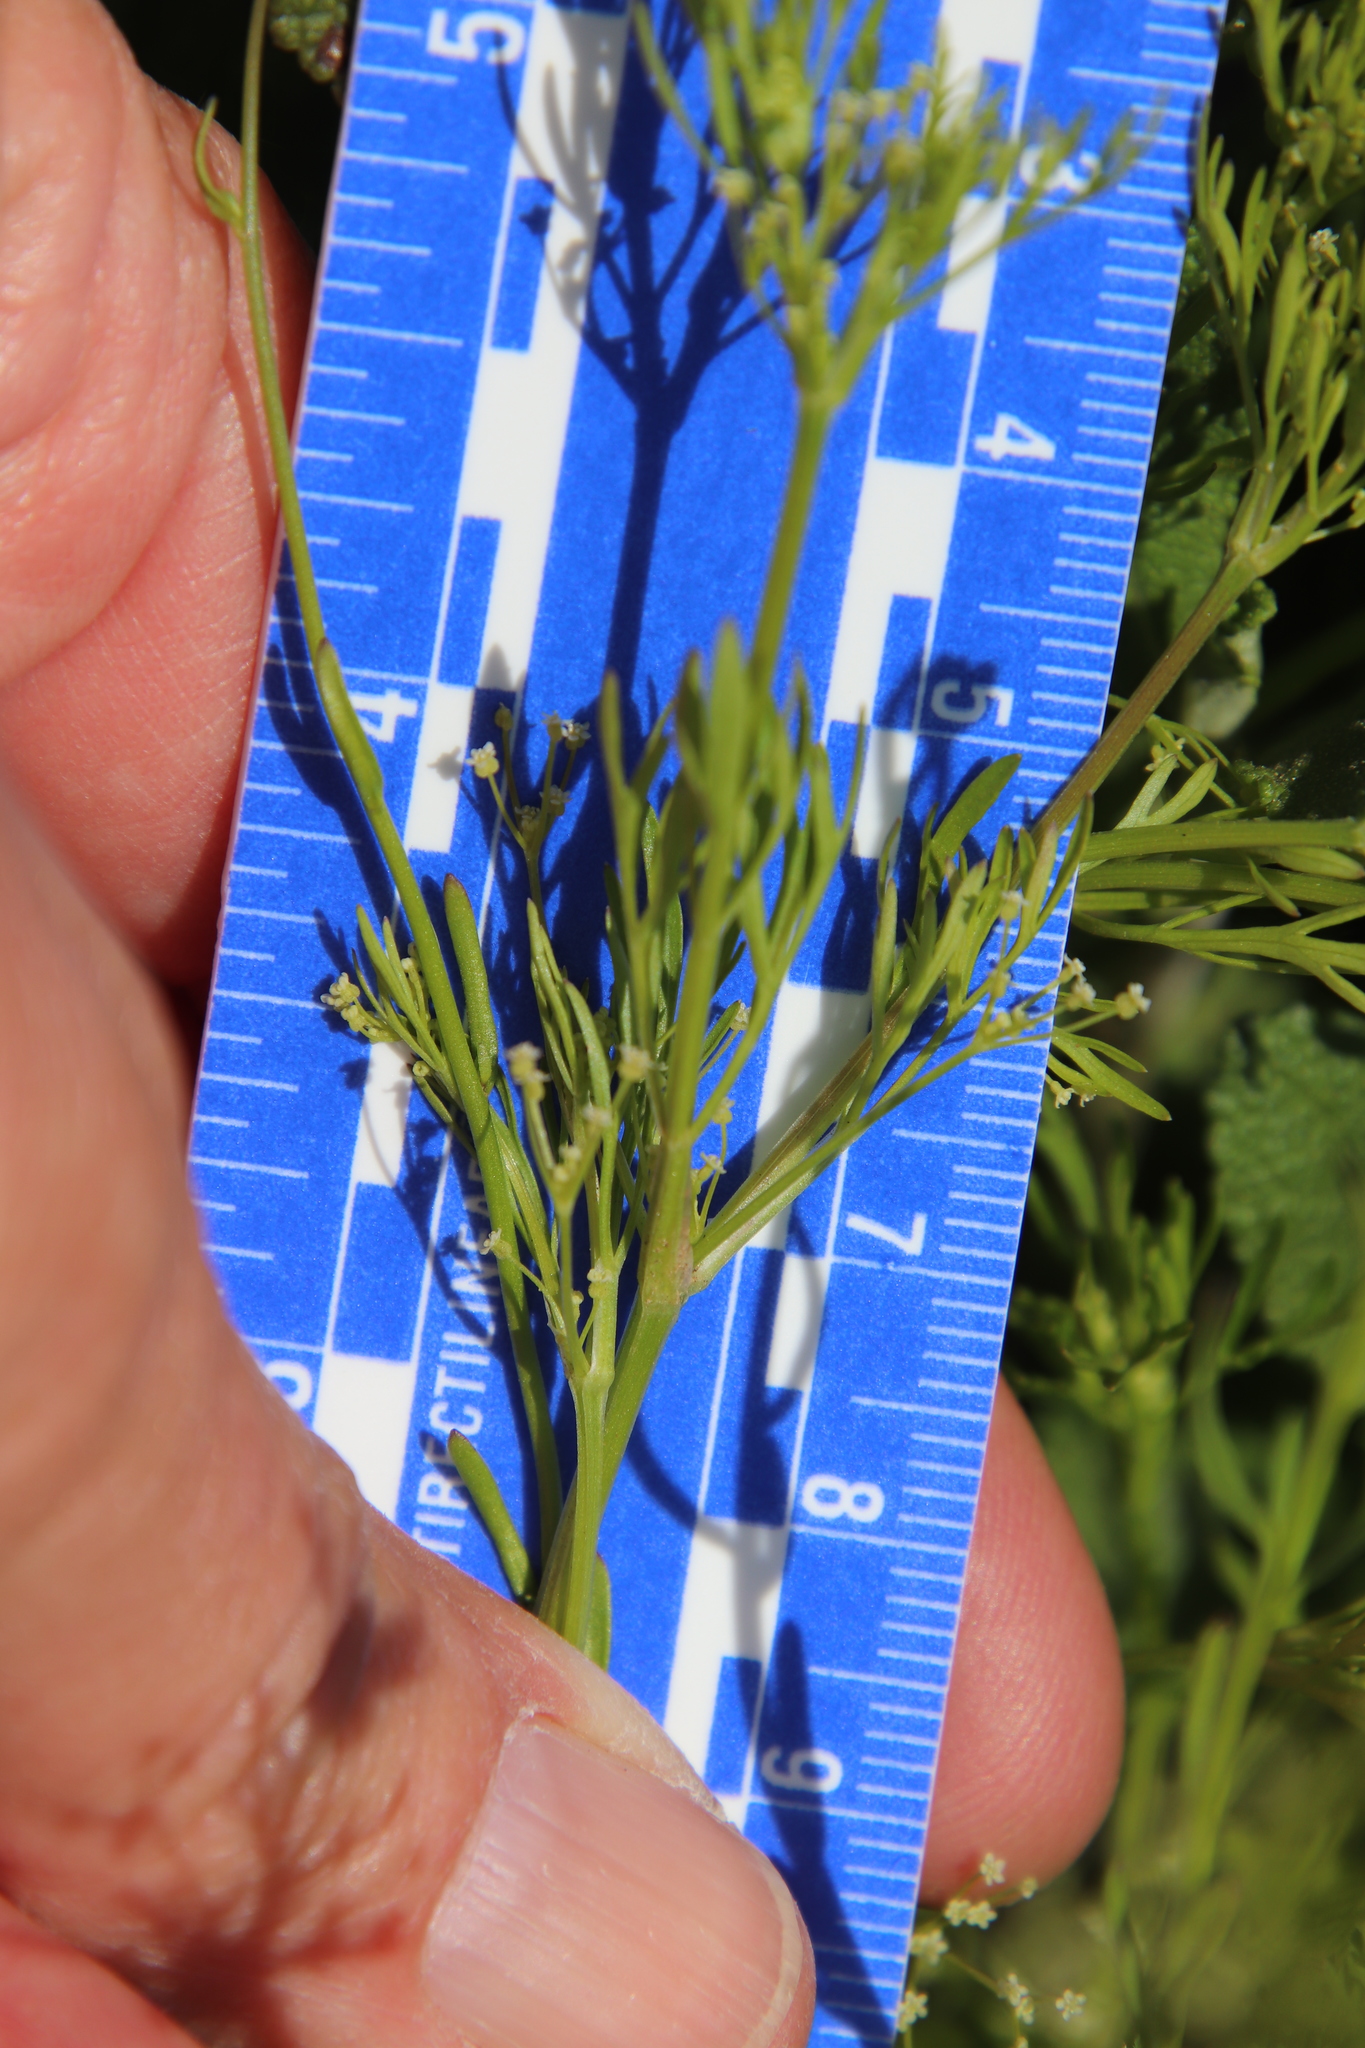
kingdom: Plantae
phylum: Tracheophyta
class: Magnoliopsida
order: Apiales
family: Apiaceae
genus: Apiastrum
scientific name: Apiastrum angustifolium
